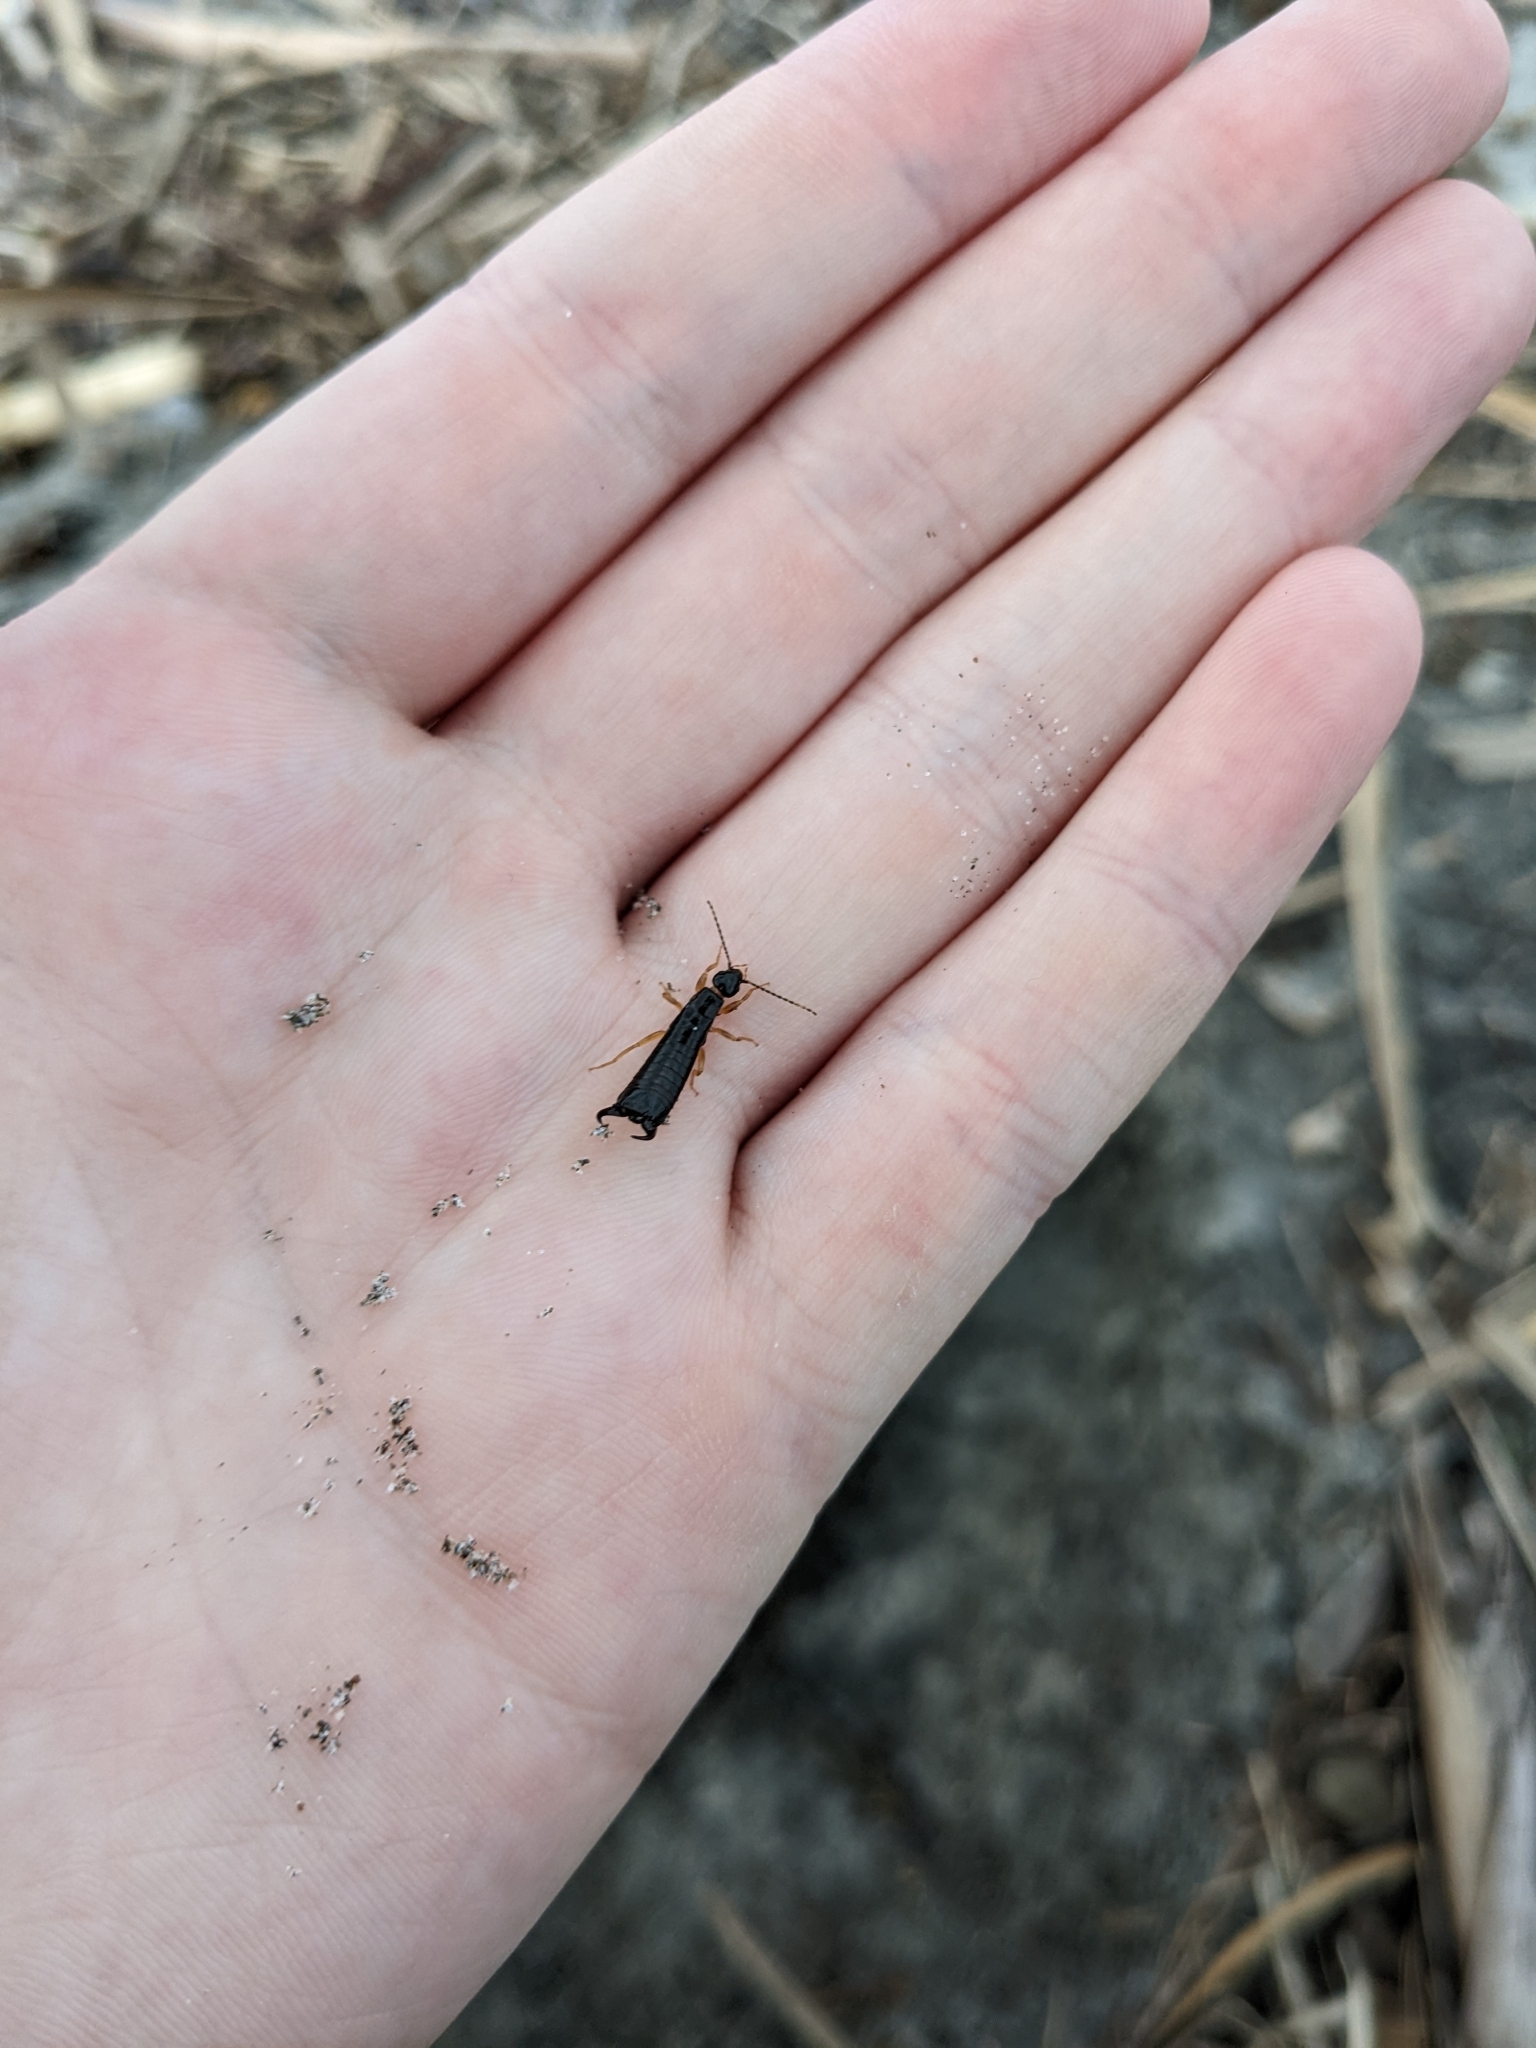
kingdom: Animalia
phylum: Arthropoda
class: Insecta
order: Dermaptera
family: Anisolabididae
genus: Anisolabis
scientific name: Anisolabis littorea
